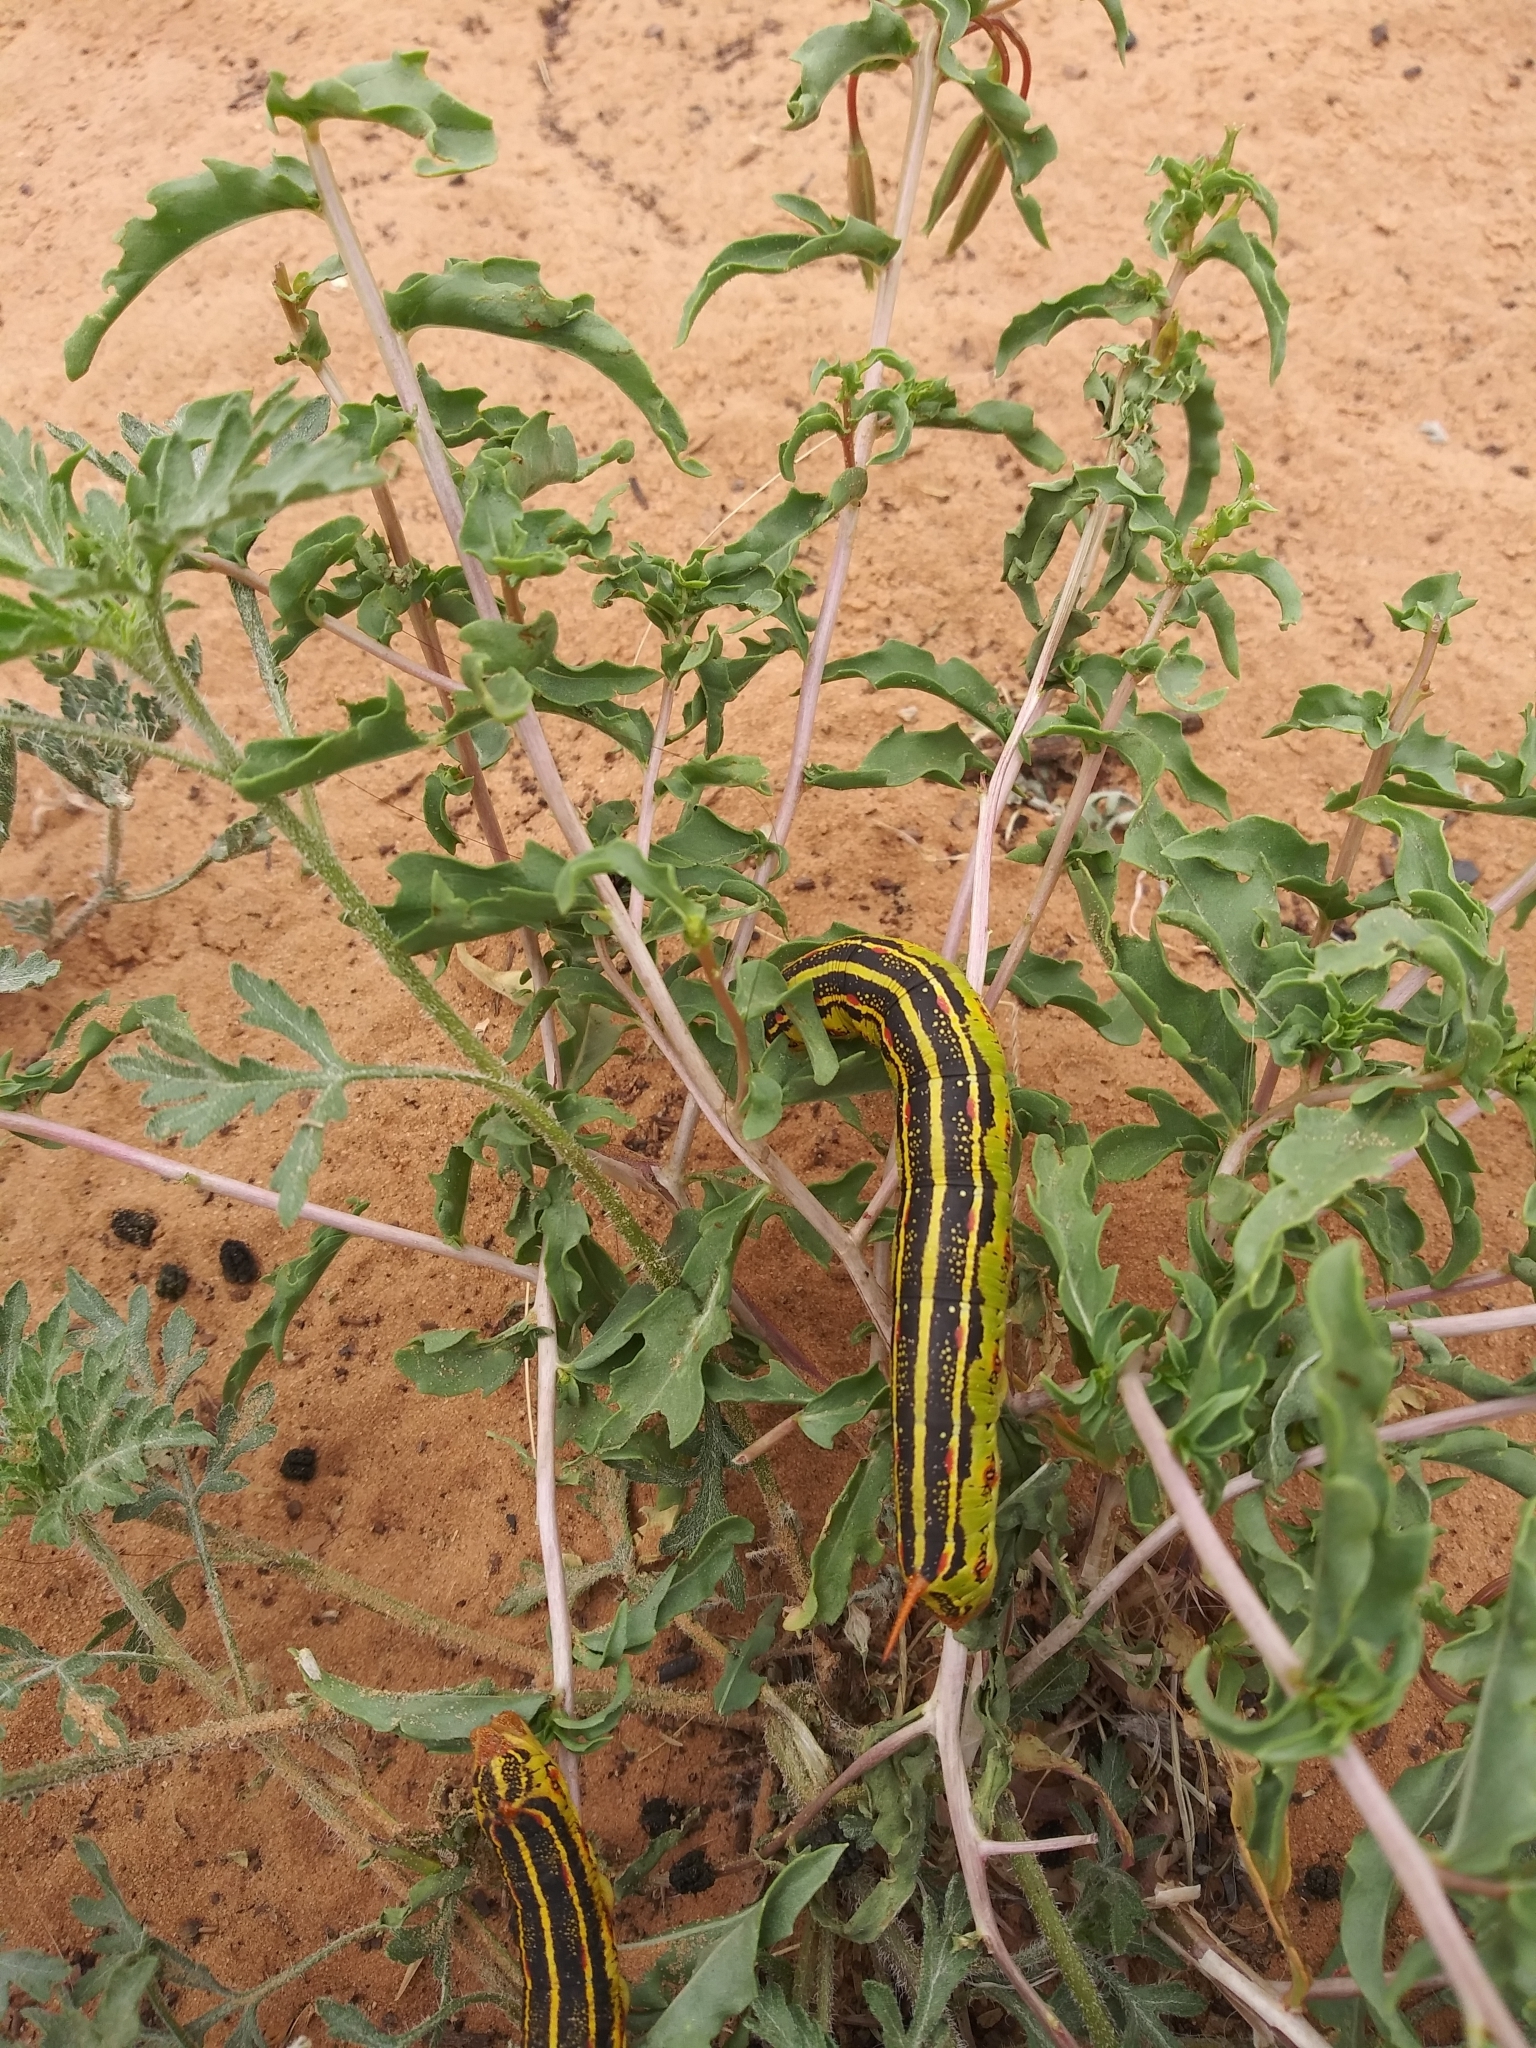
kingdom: Animalia
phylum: Arthropoda
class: Insecta
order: Lepidoptera
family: Sphingidae
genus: Hyles
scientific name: Hyles lineata
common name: White-lined sphinx
